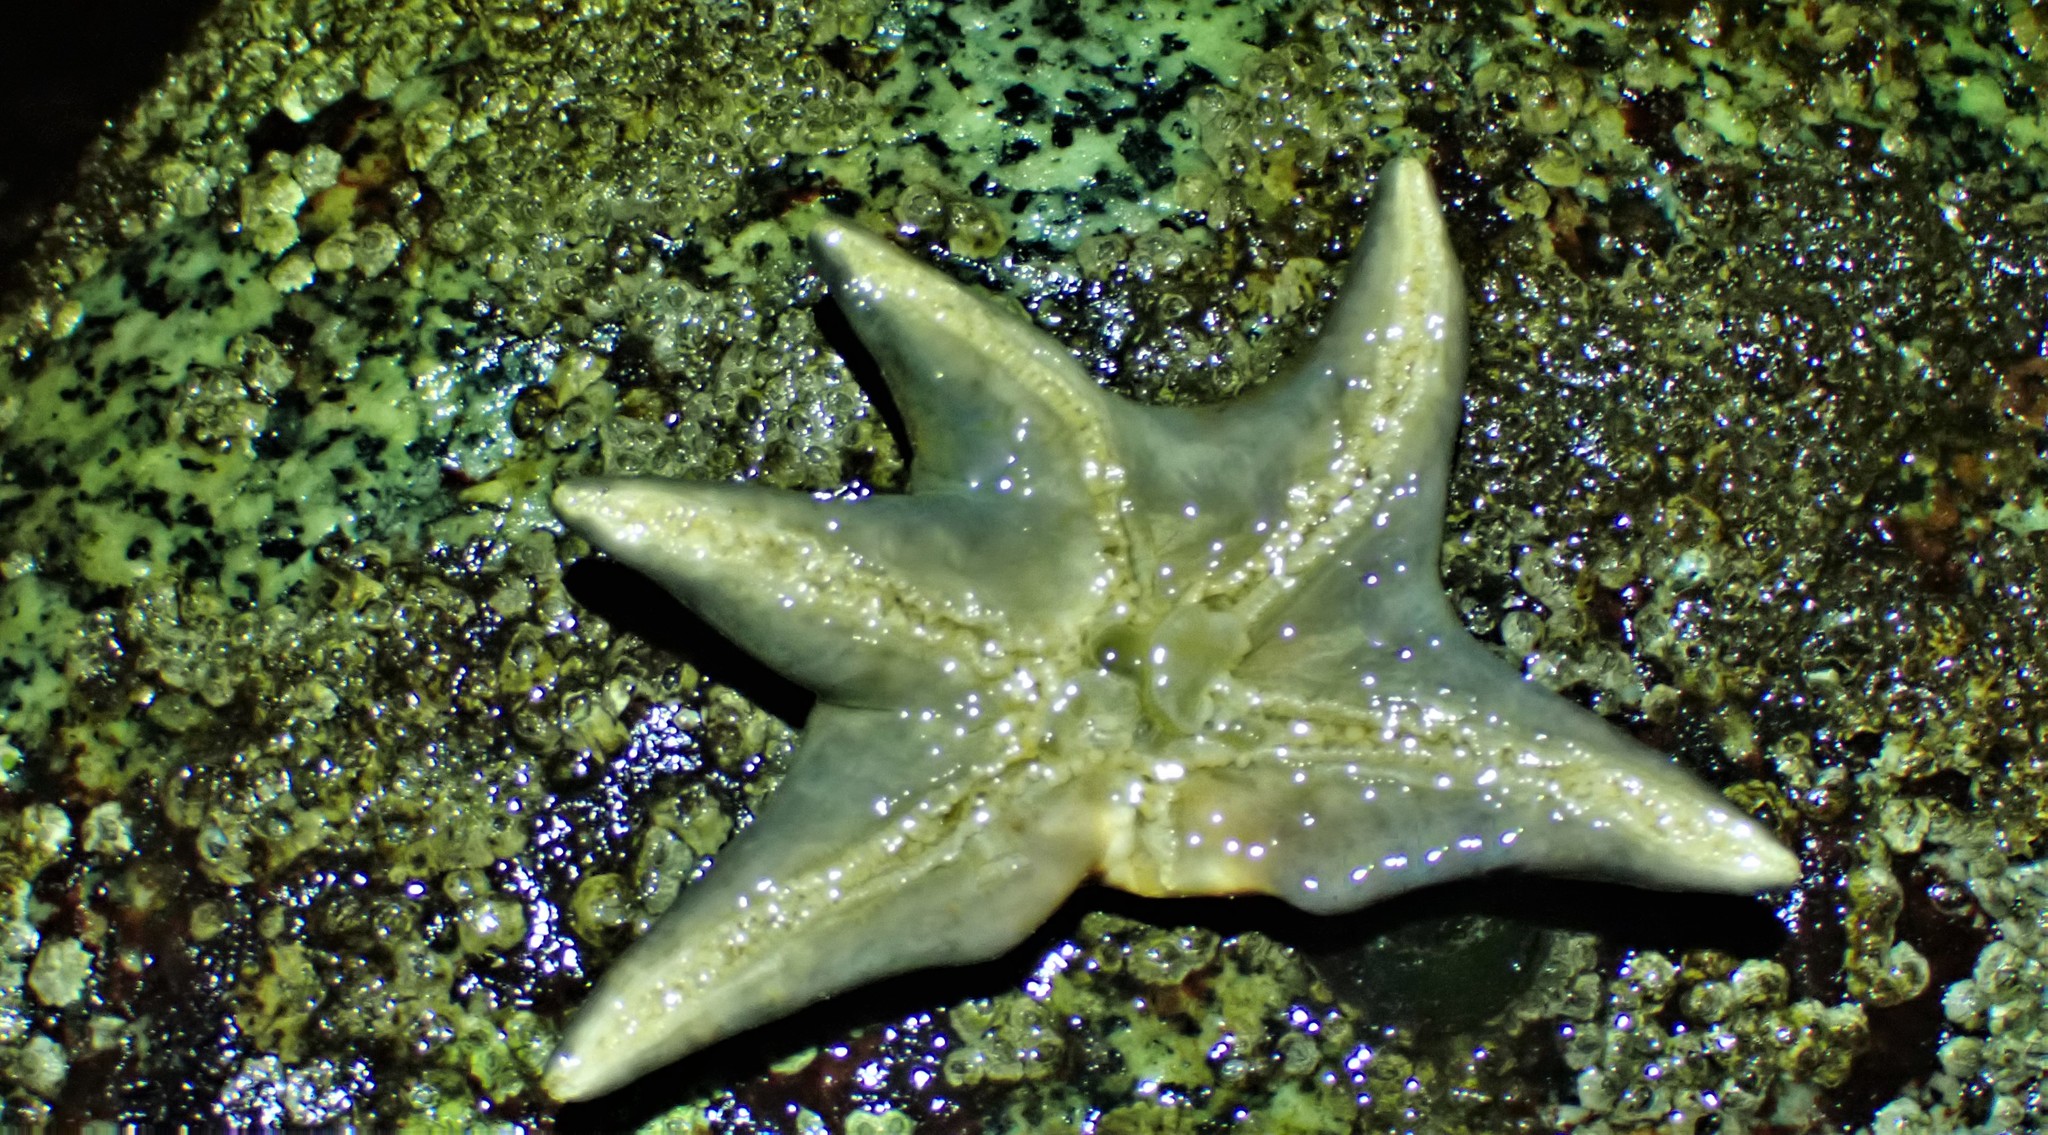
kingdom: Animalia
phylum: Echinodermata
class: Asteroidea
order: Valvatida
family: Asteropseidae
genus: Dermasterias
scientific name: Dermasterias imbricata
